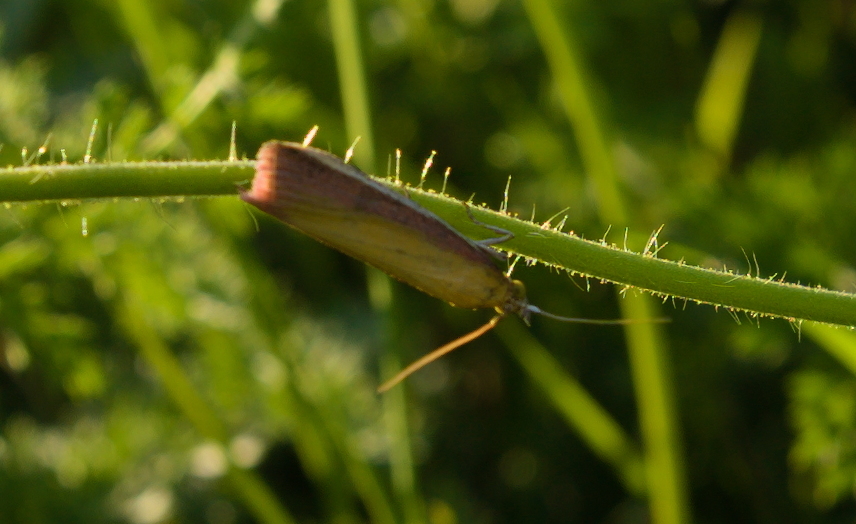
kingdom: Animalia
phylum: Arthropoda
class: Insecta
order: Lepidoptera
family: Pyralidae
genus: Oncocera
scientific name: Oncocera semirubella
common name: Rosy-striped knot-horn
